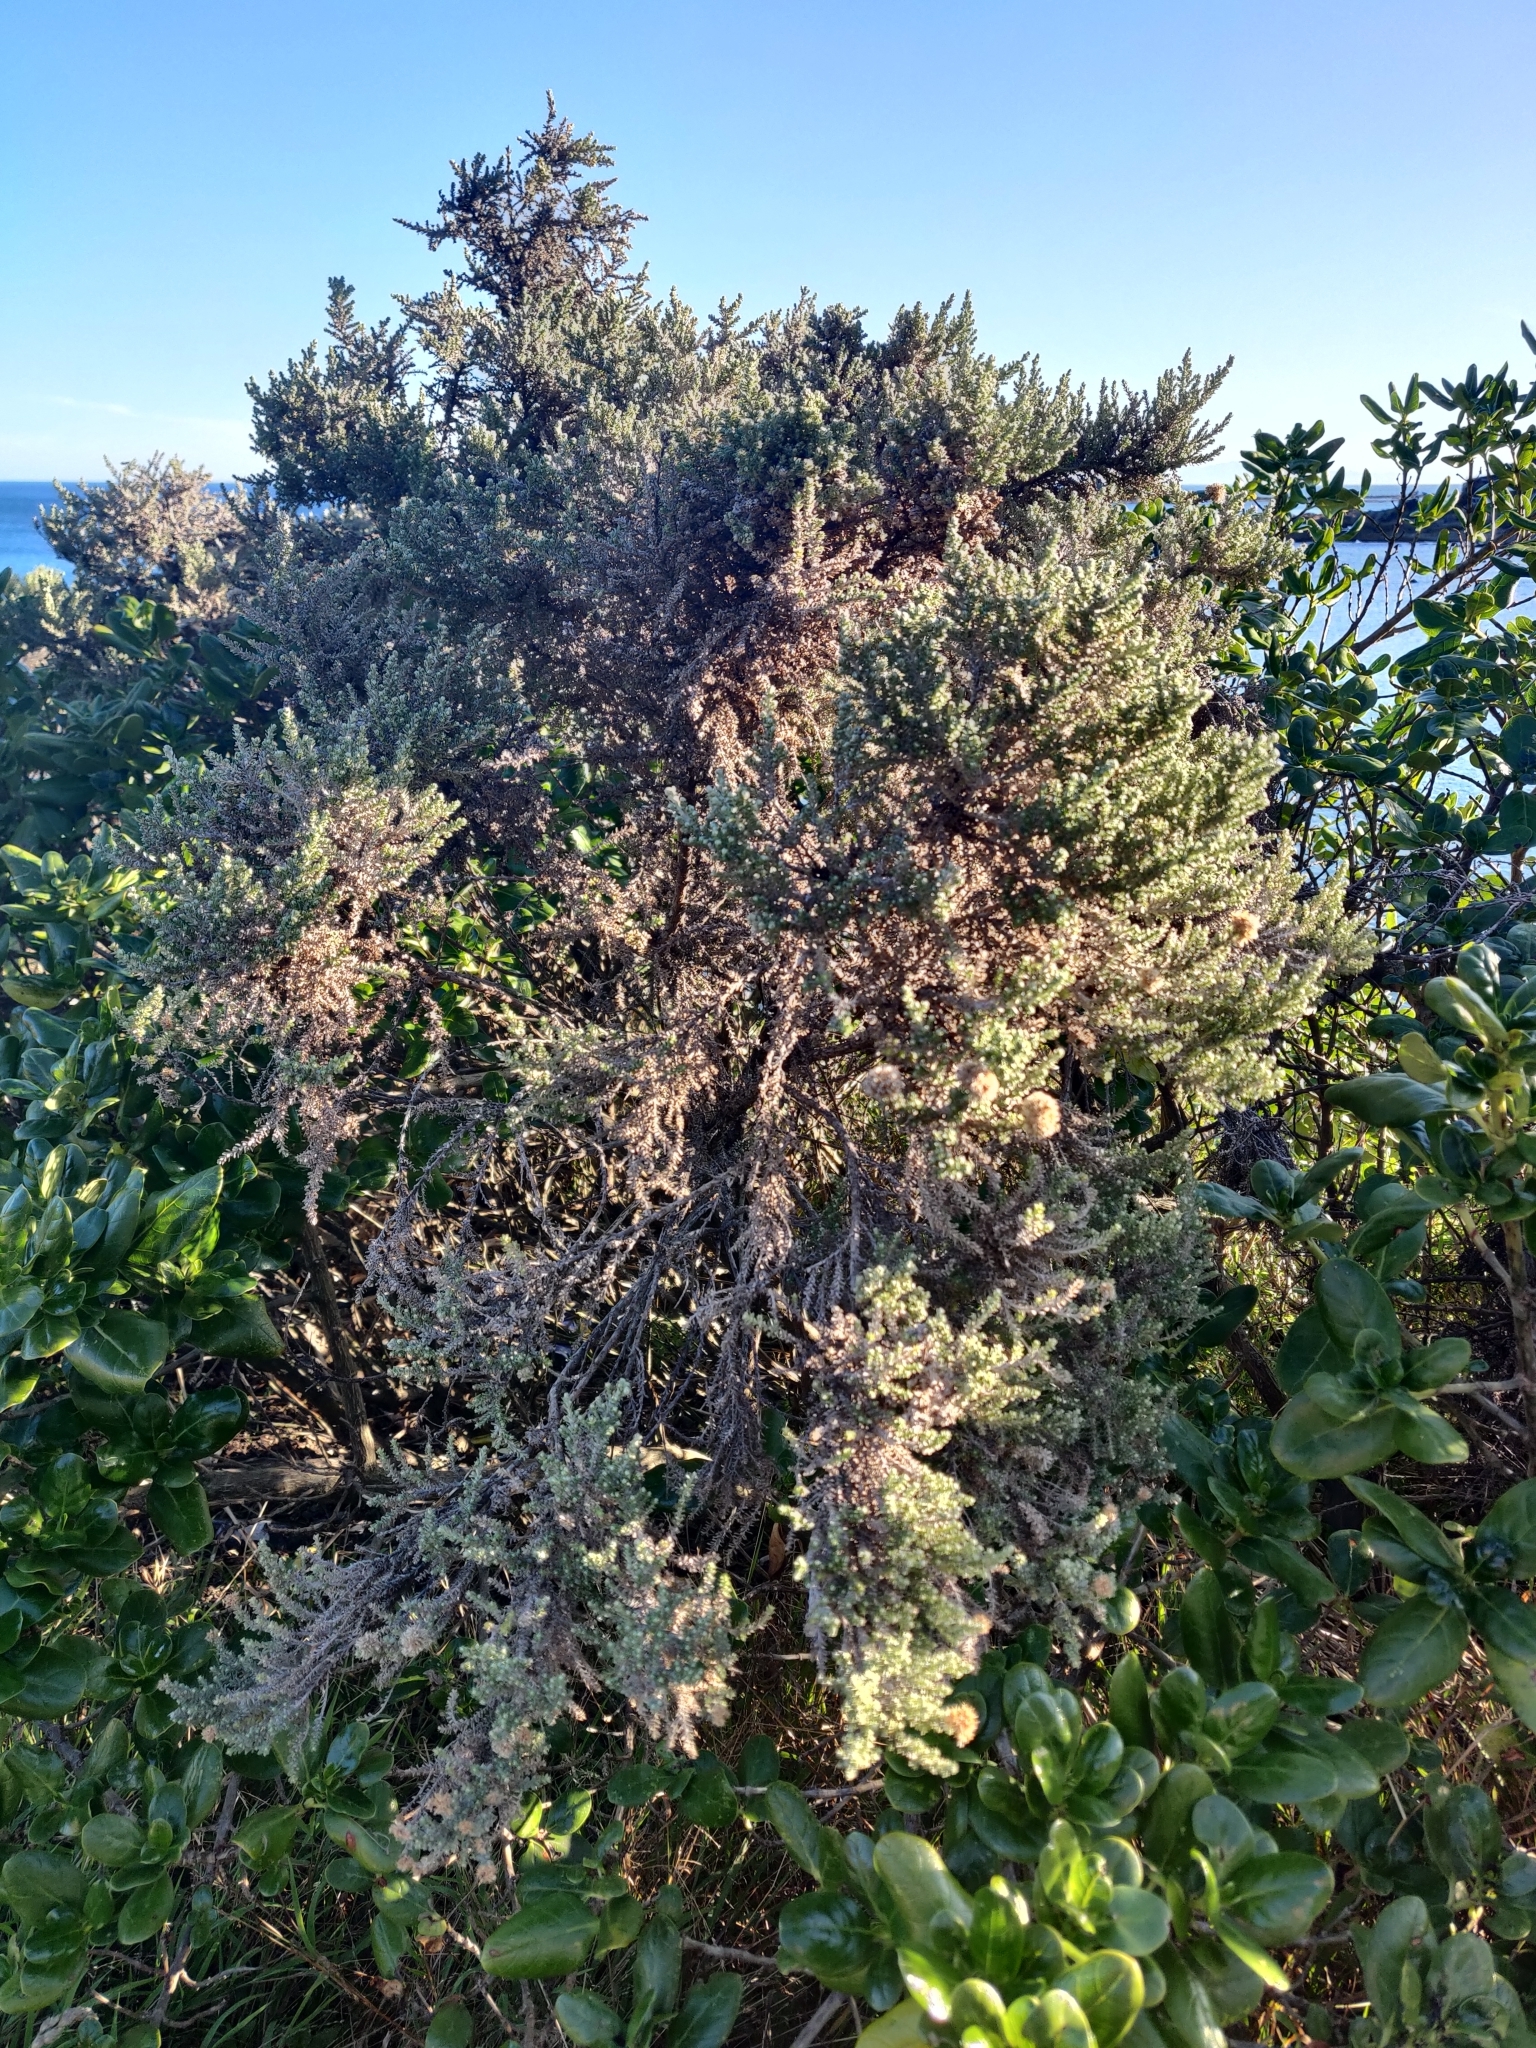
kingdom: Plantae
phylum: Tracheophyta
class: Magnoliopsida
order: Asterales
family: Asteraceae
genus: Ozothamnus
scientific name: Ozothamnus leptophyllus
